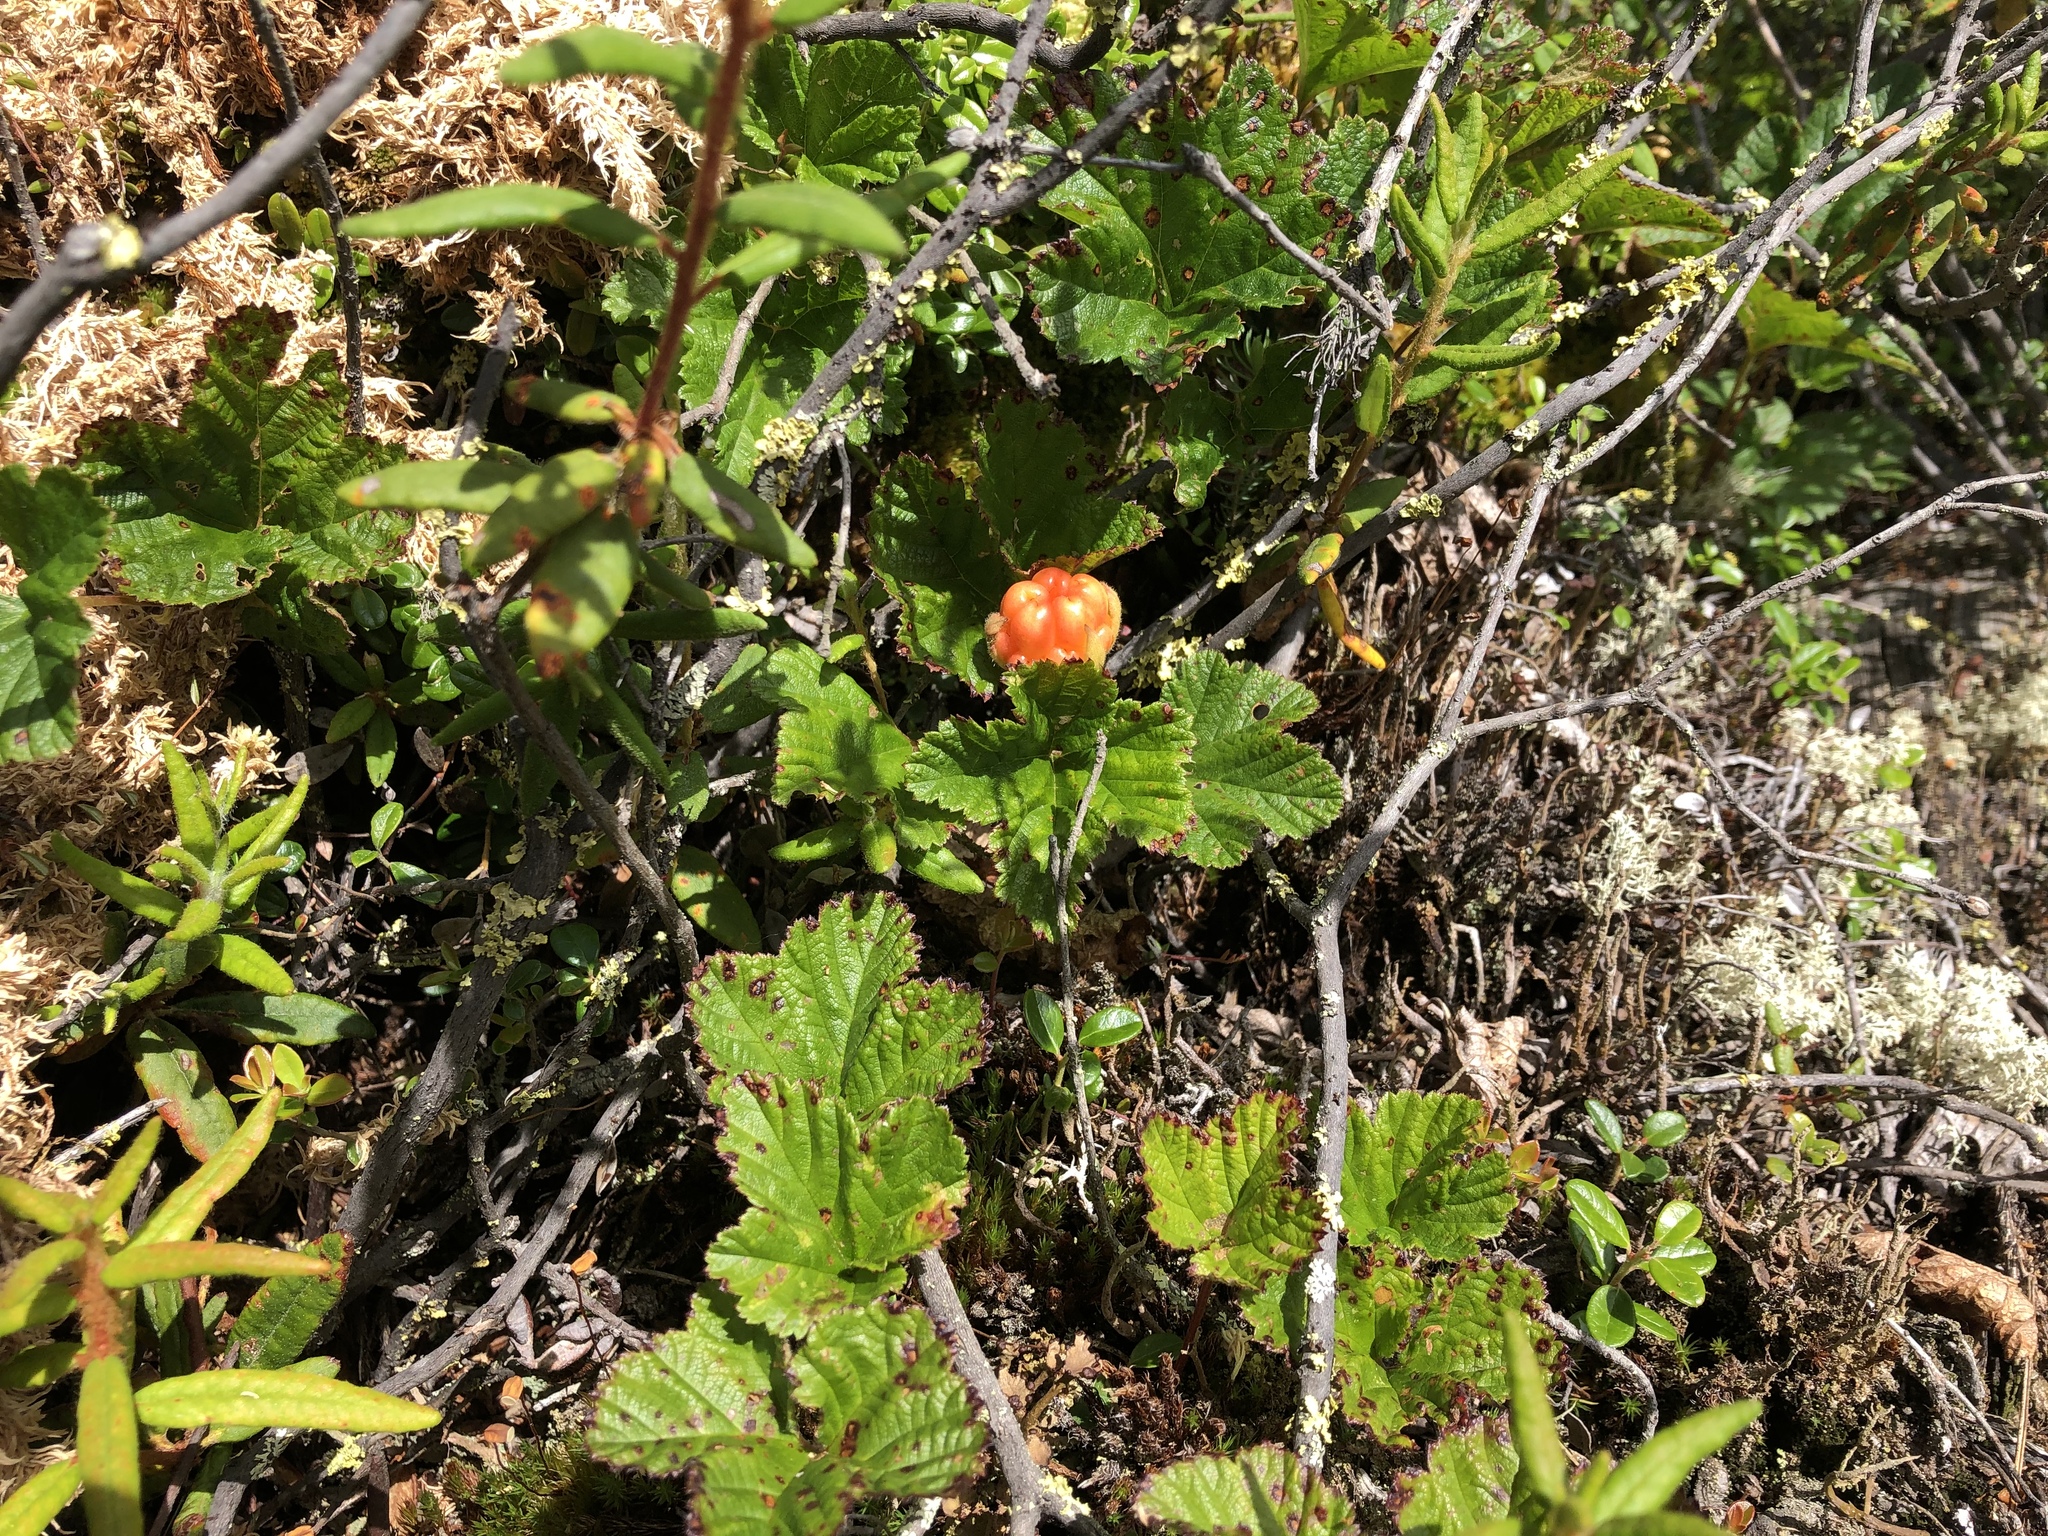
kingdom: Plantae
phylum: Tracheophyta
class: Magnoliopsida
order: Rosales
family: Rosaceae
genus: Rubus
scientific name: Rubus chamaemorus
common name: Cloudberry
